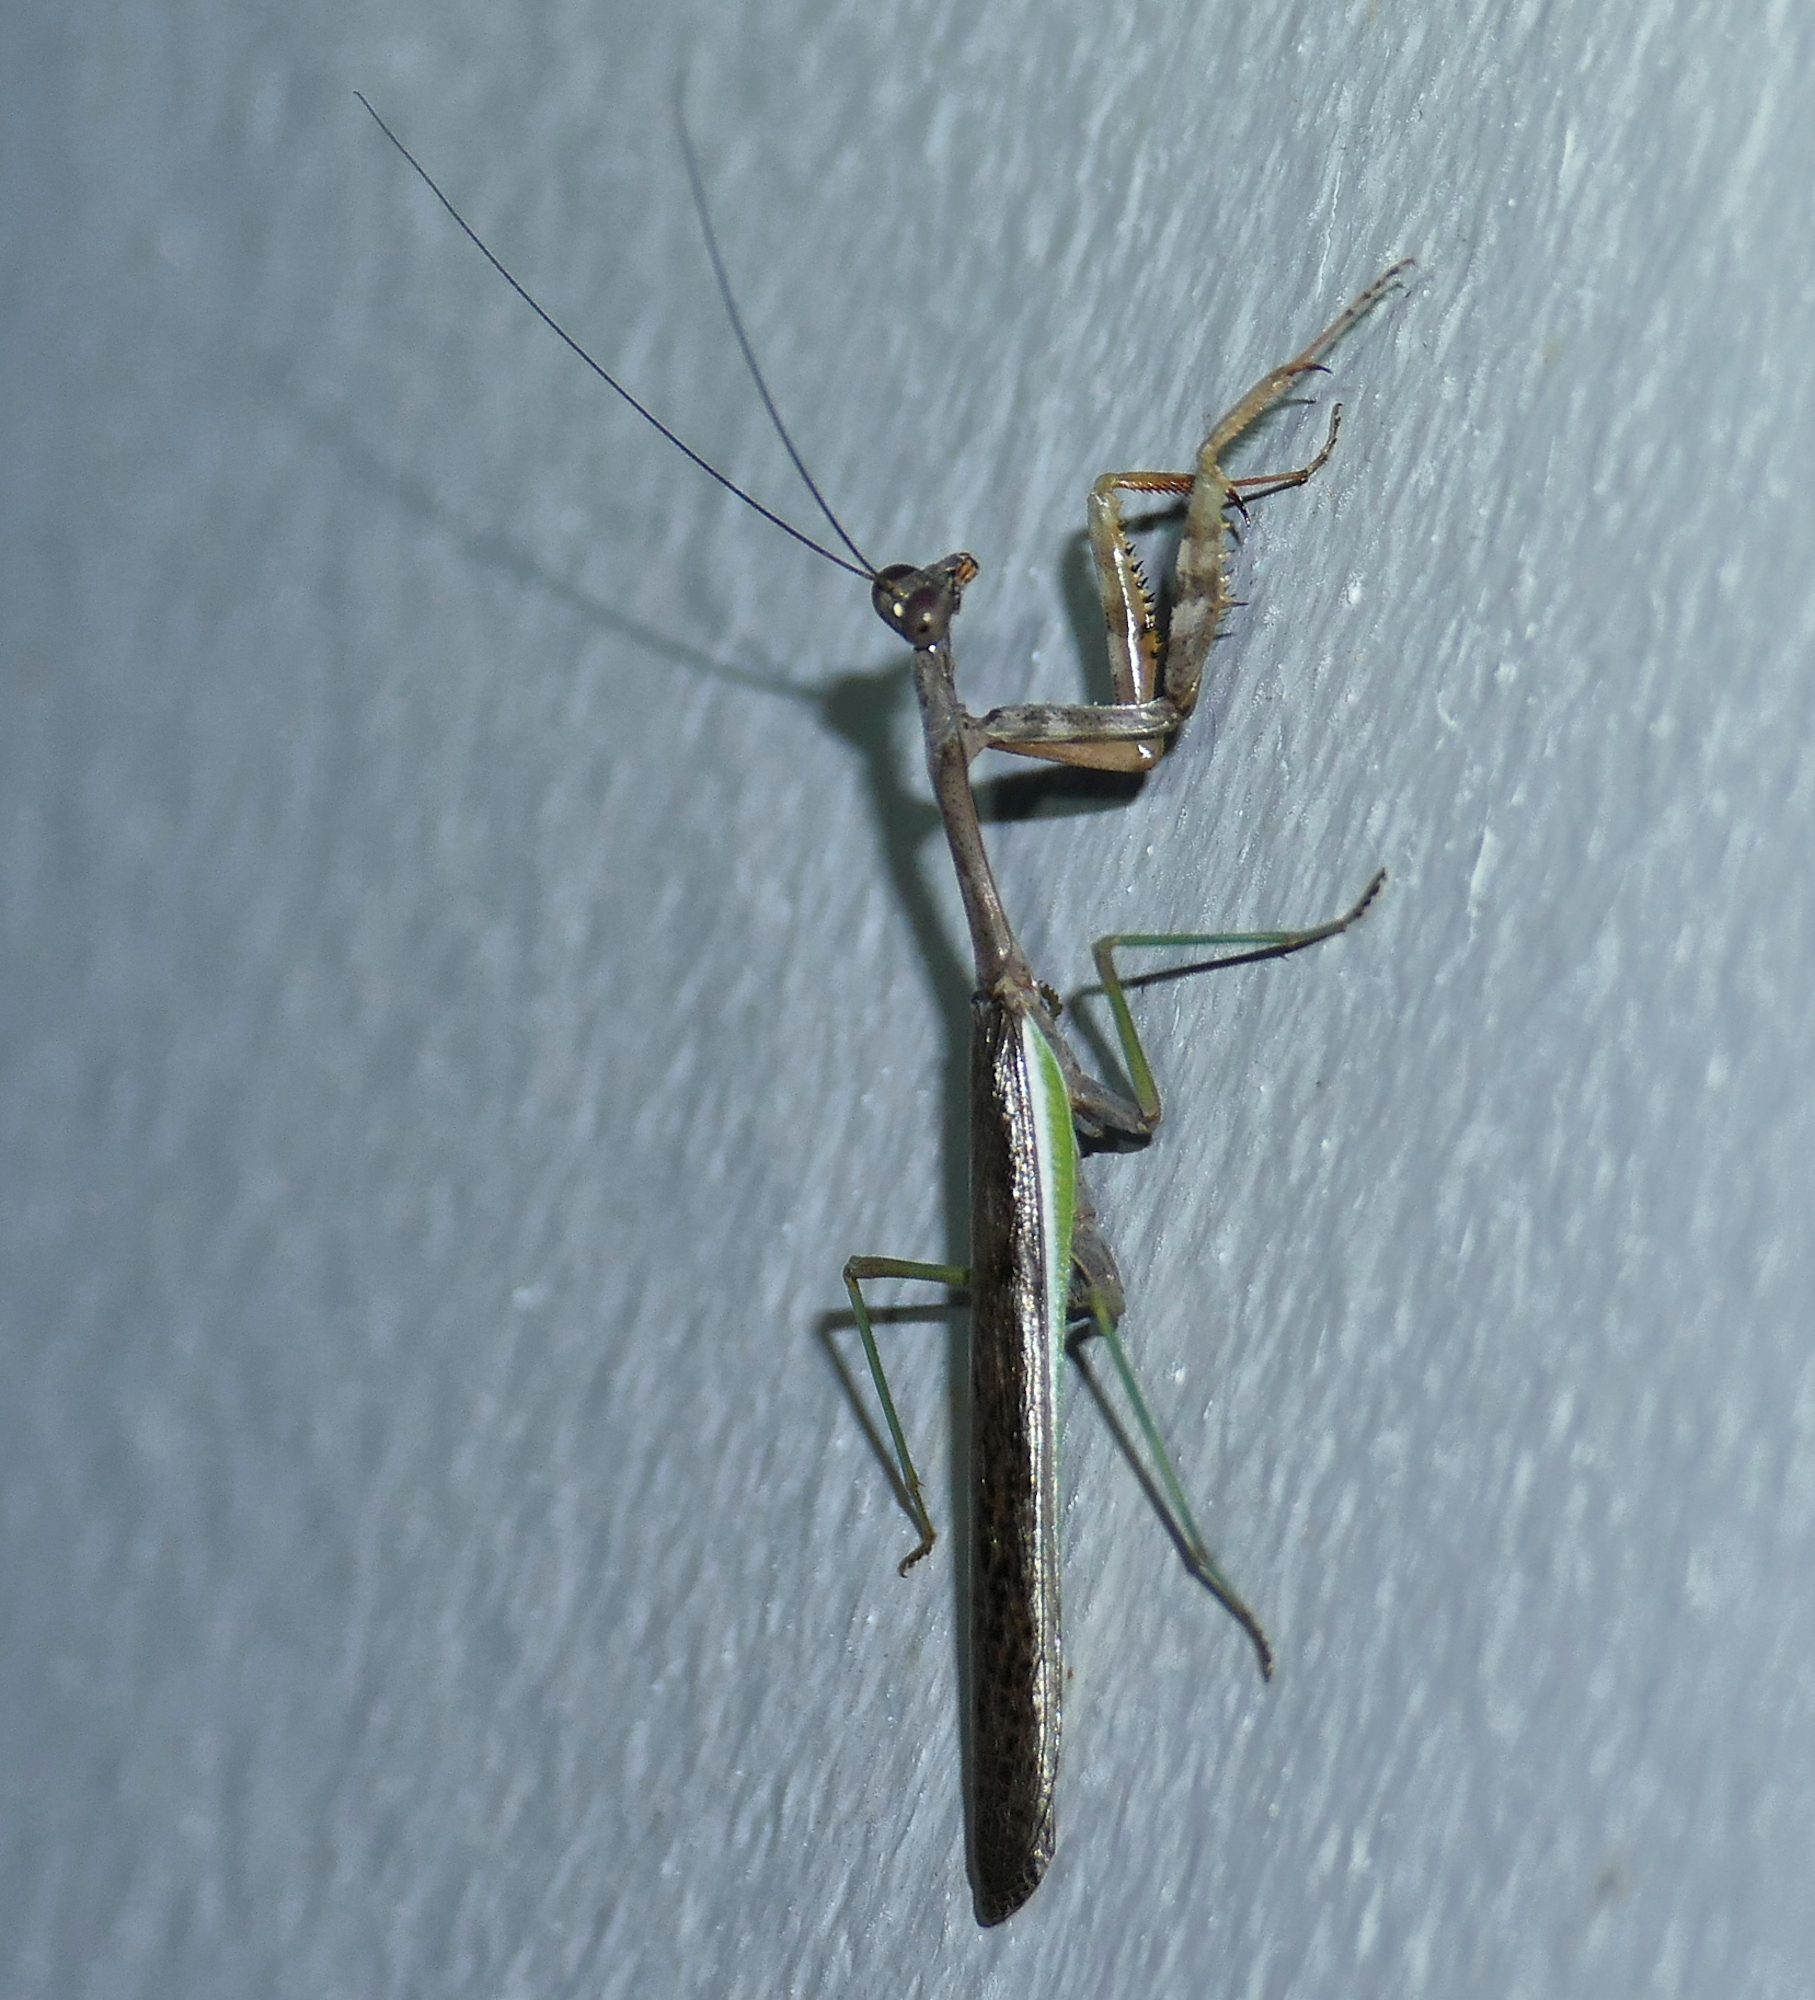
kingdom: Animalia
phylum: Arthropoda
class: Insecta
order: Mantodea
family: Mantidae
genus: Stagmomantis
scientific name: Stagmomantis limbata
